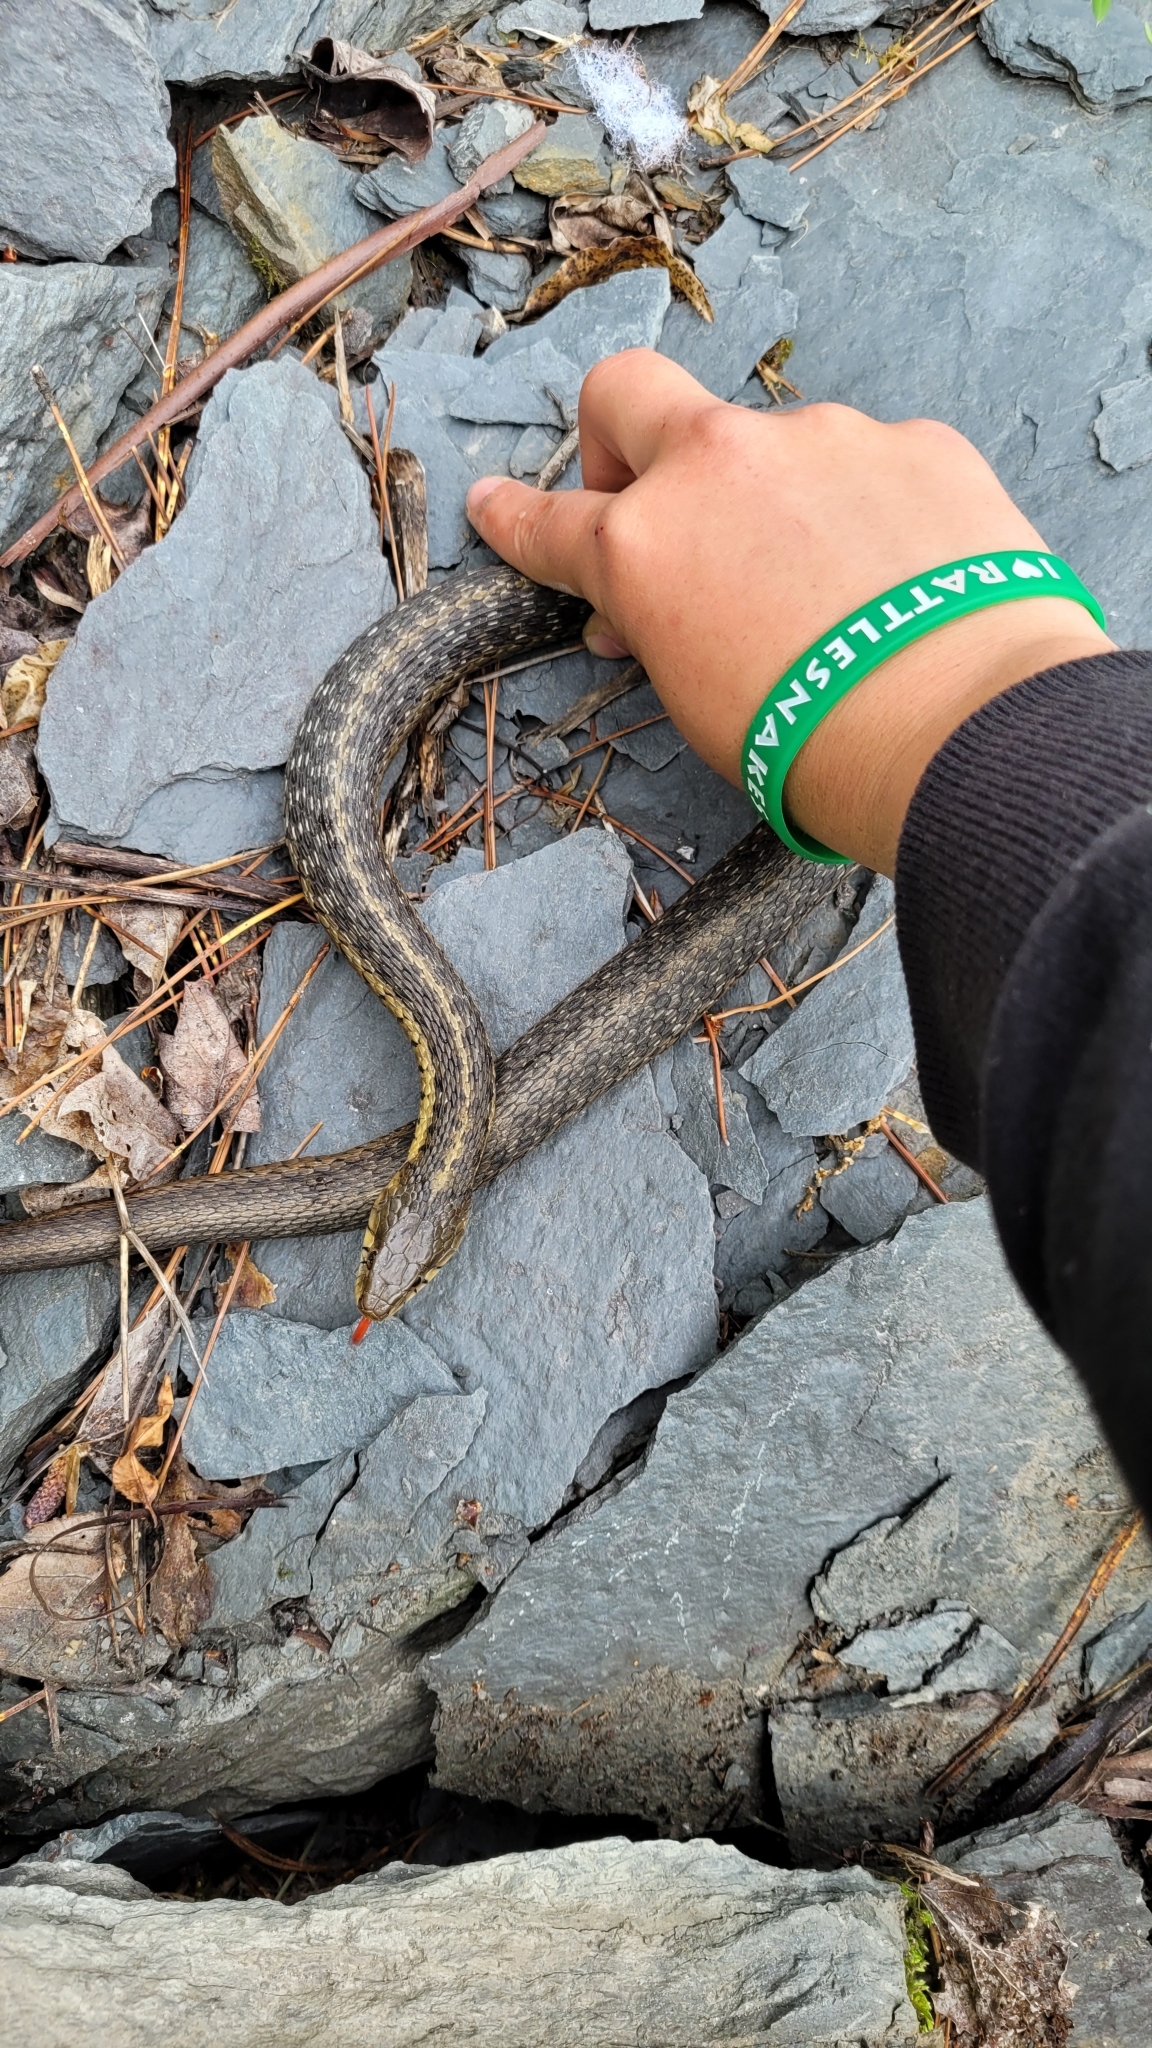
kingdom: Animalia
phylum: Chordata
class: Squamata
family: Colubridae
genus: Thamnophis
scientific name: Thamnophis sirtalis
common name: Common garter snake
